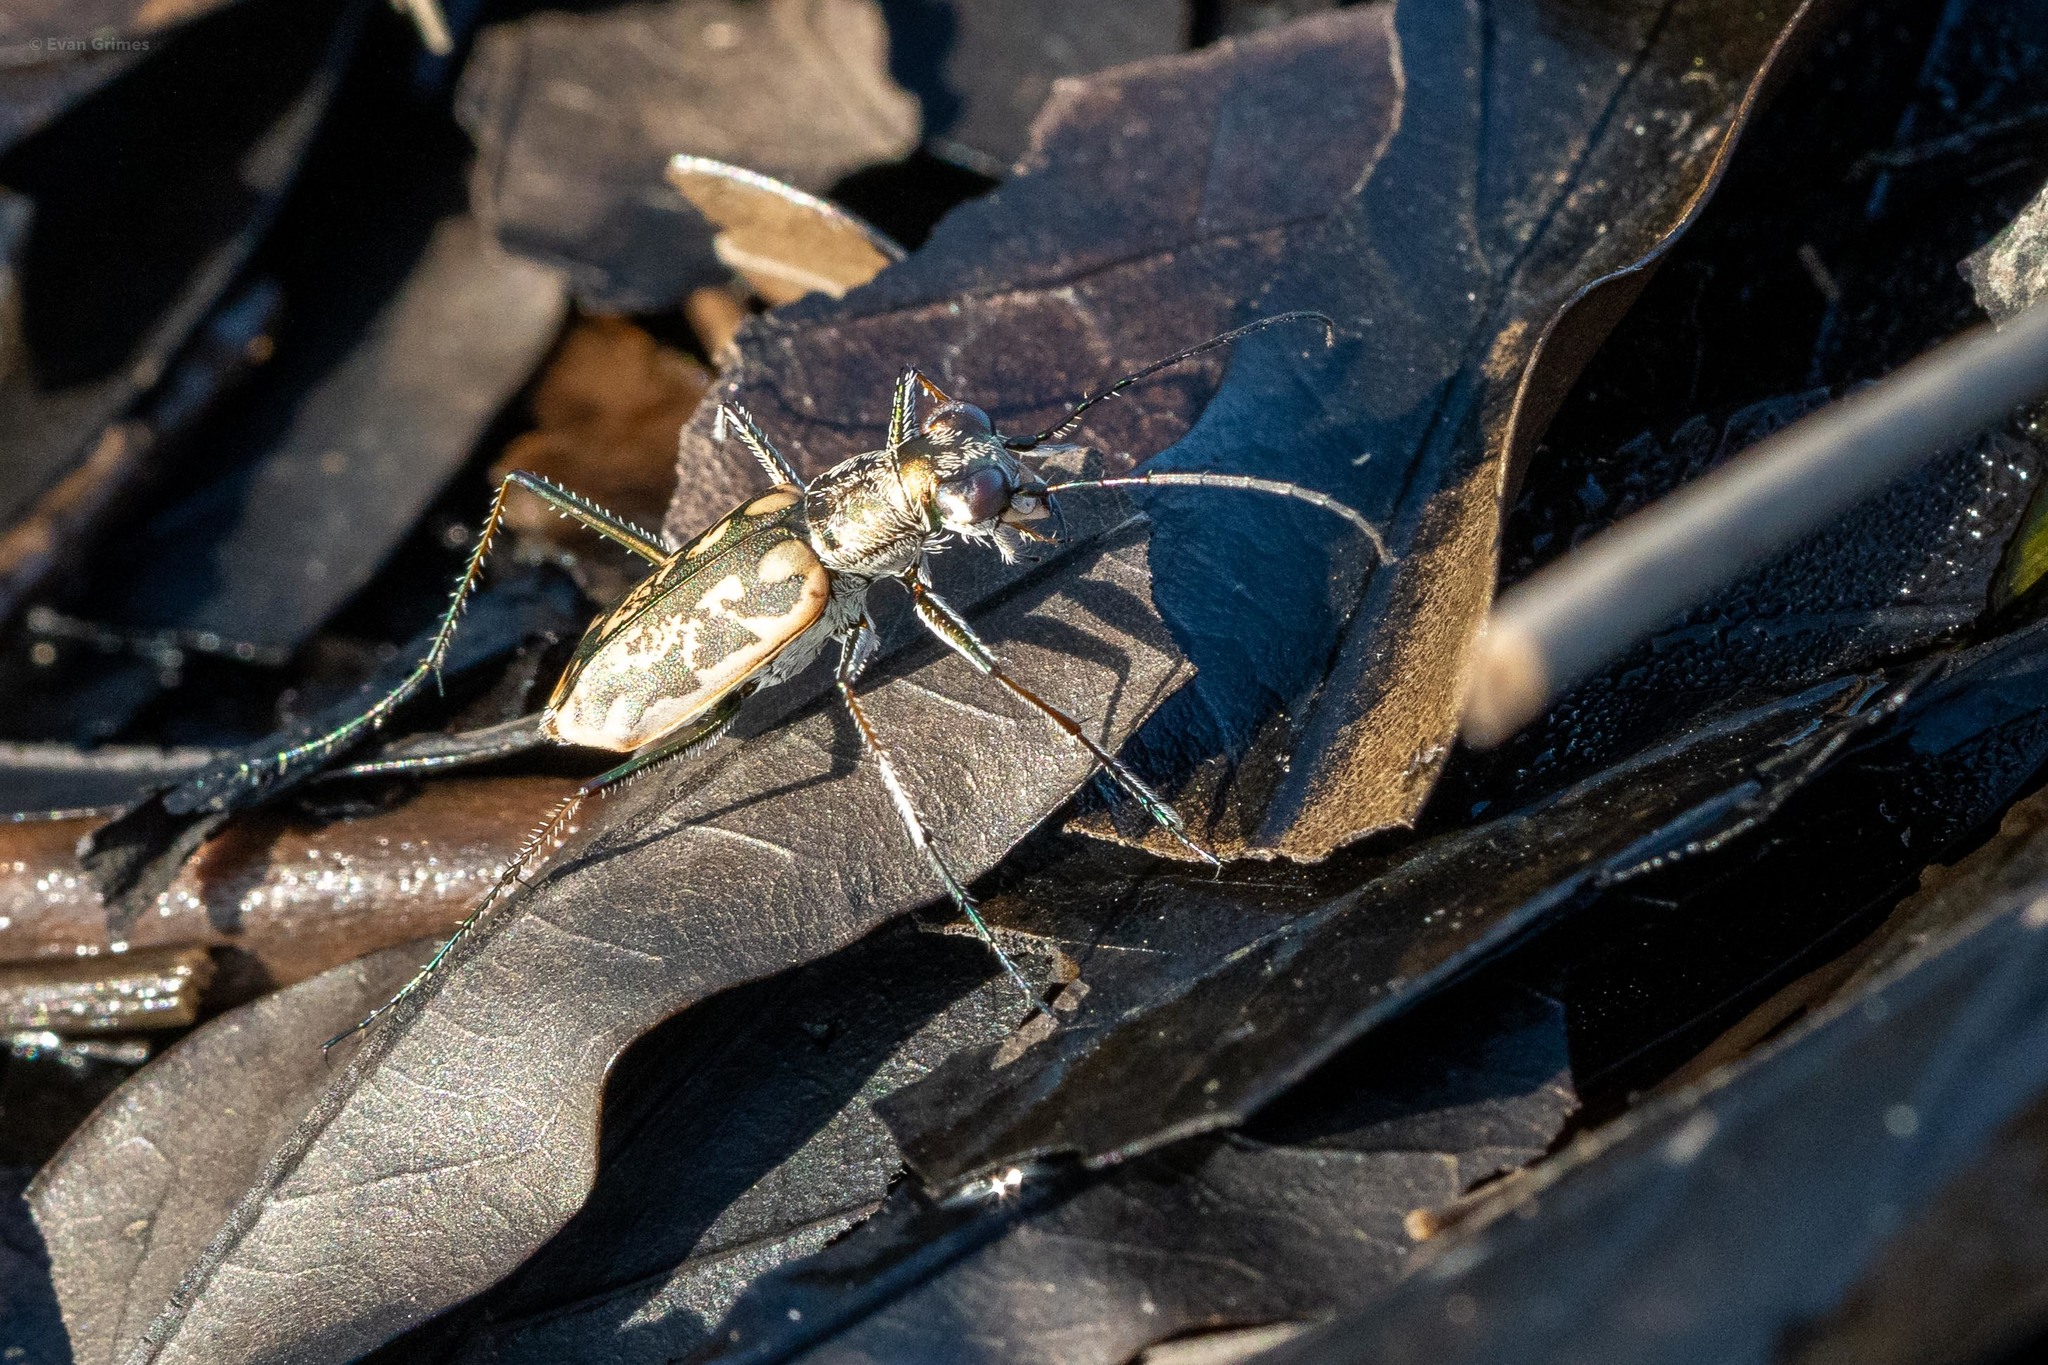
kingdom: Animalia
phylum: Arthropoda
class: Insecta
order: Coleoptera
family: Carabidae
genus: Ellipsoptera
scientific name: Ellipsoptera hamata
